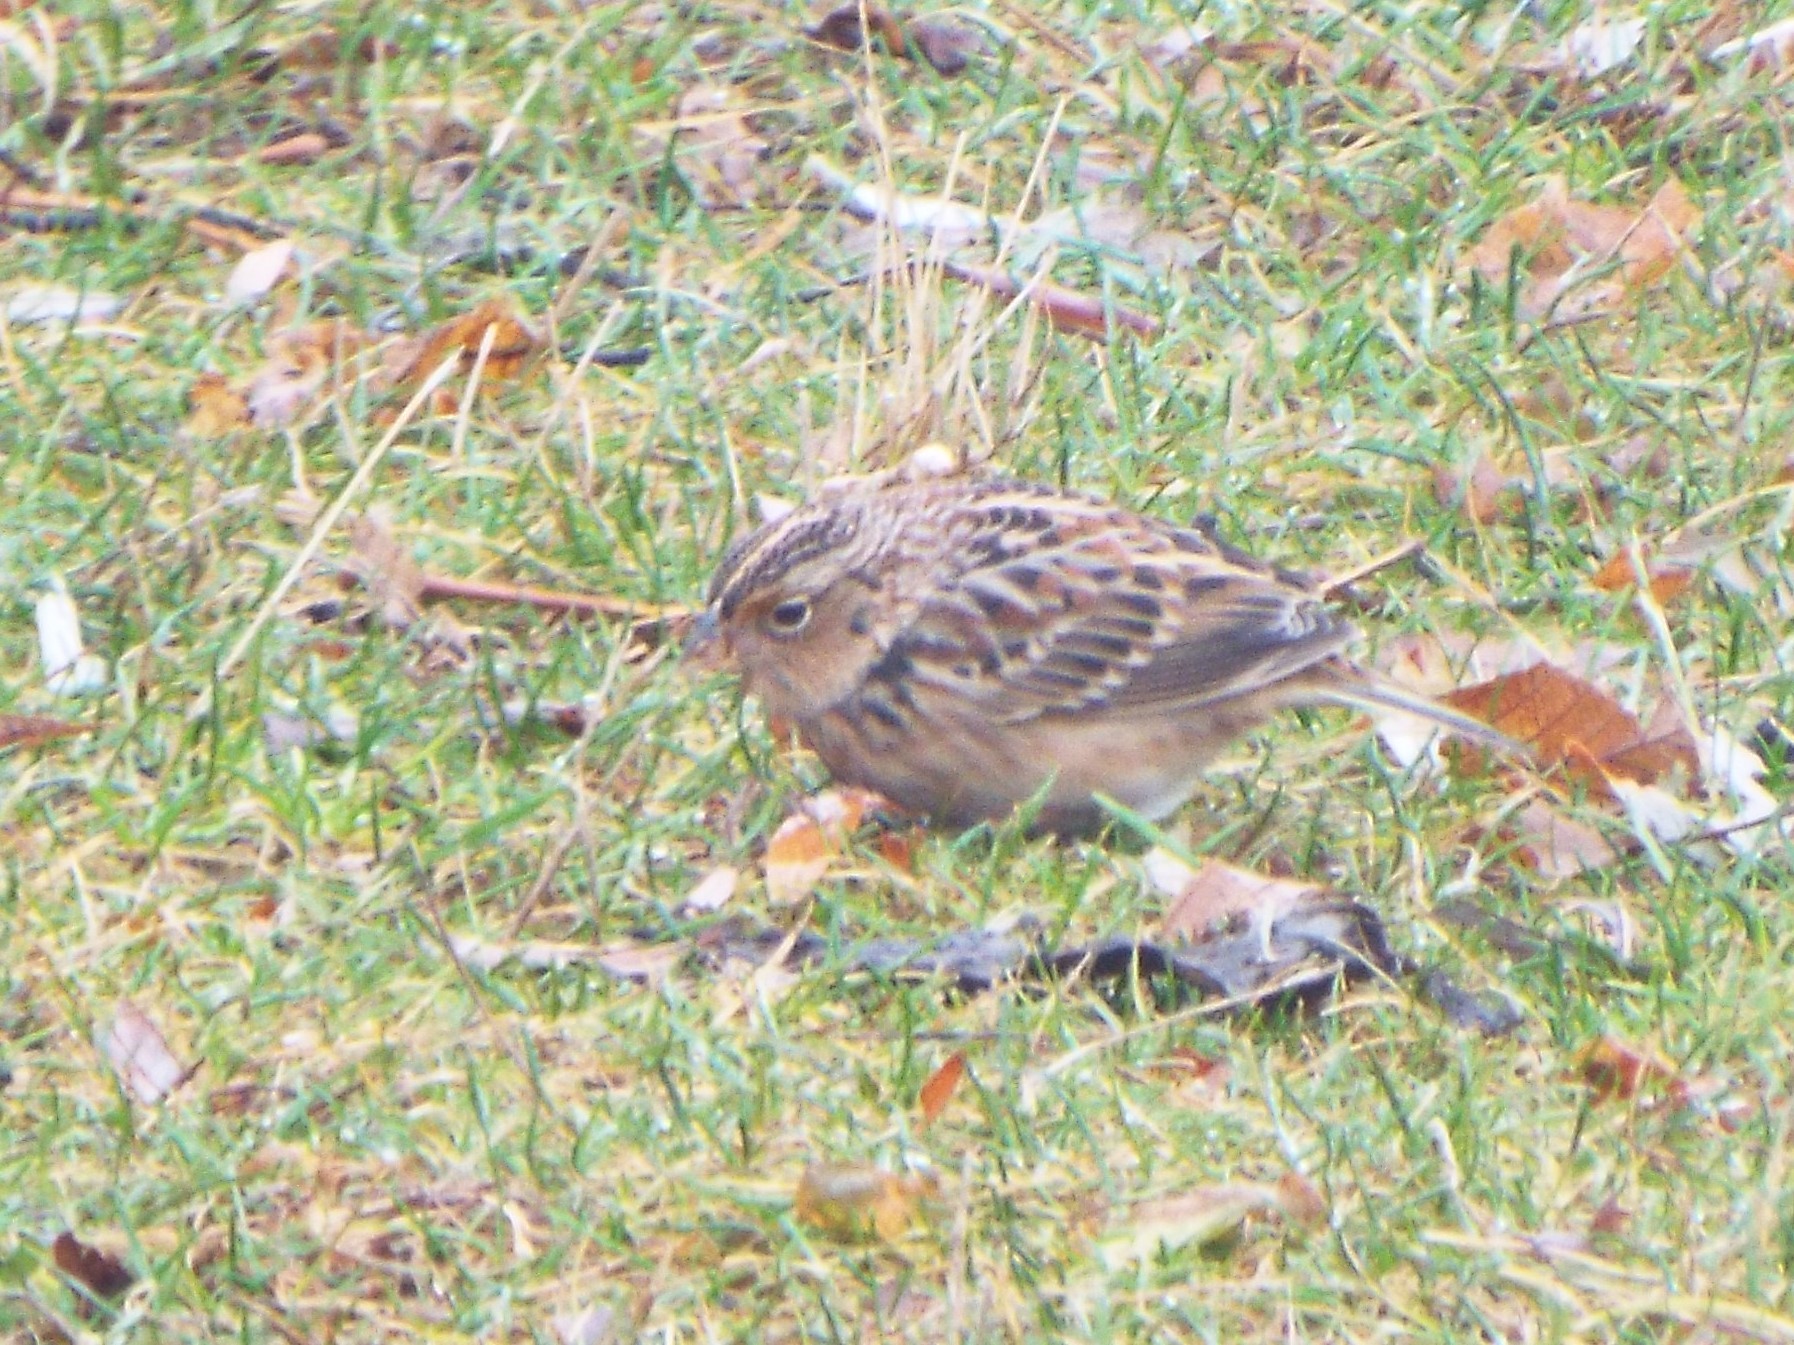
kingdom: Animalia
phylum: Chordata
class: Aves
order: Passeriformes
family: Passerellidae
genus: Ammodramus
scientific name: Ammodramus savannarum
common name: Grasshopper sparrow
